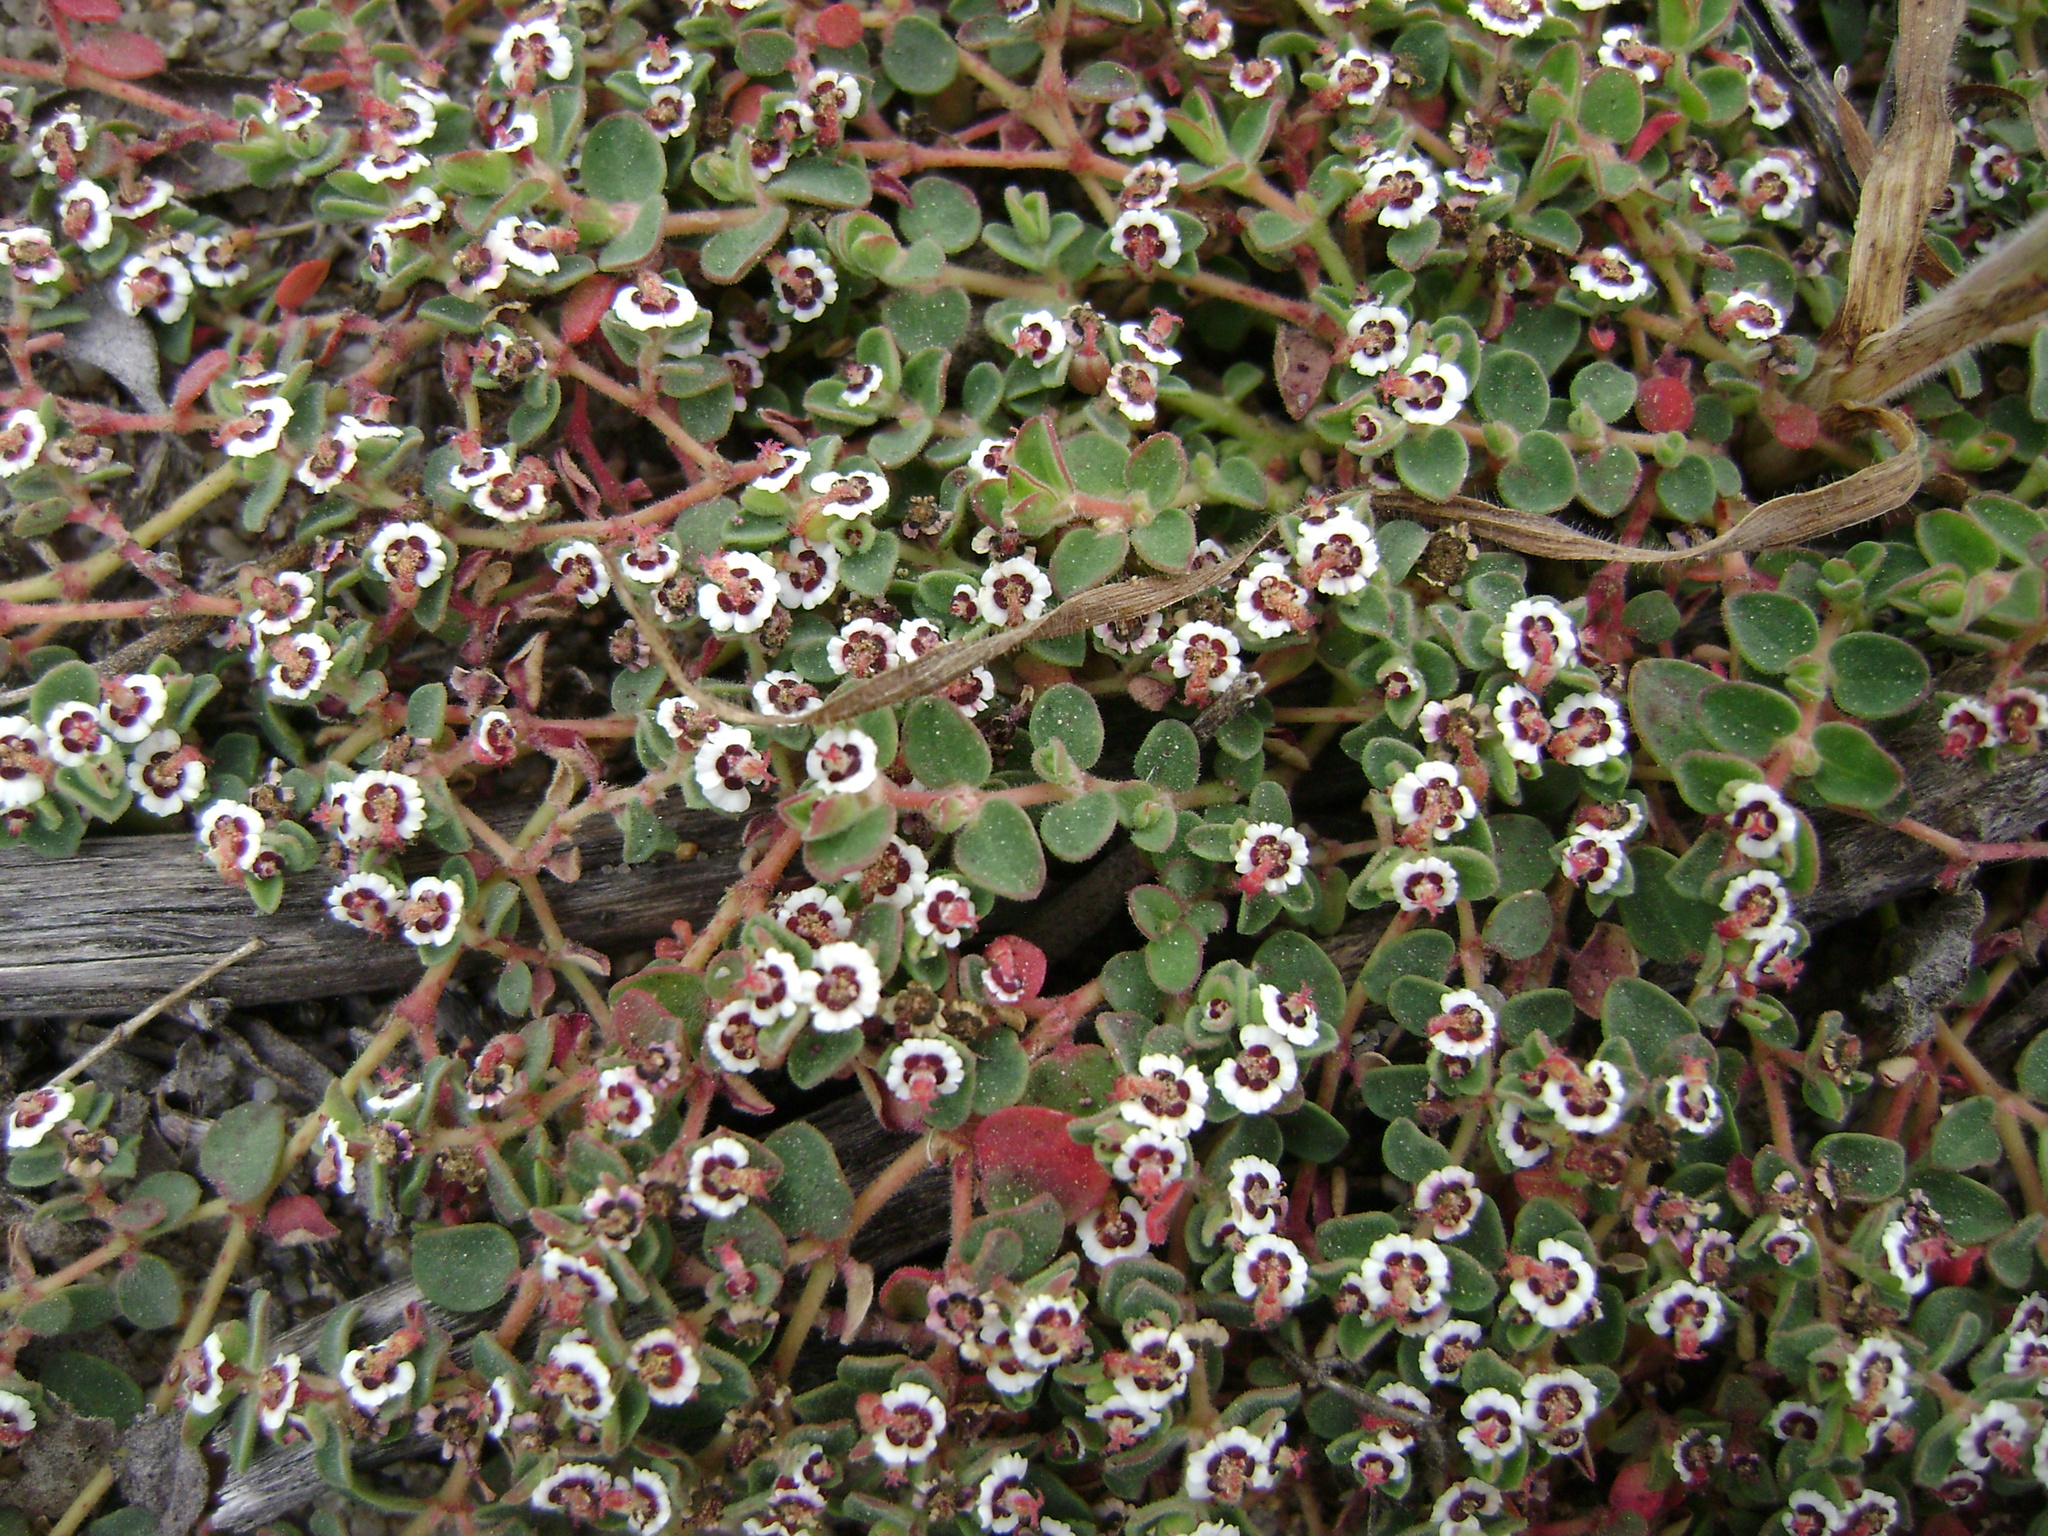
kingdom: Plantae
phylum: Tracheophyta
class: Magnoliopsida
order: Malpighiales
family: Euphorbiaceae
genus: Euphorbia
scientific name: Euphorbia polycarpa
